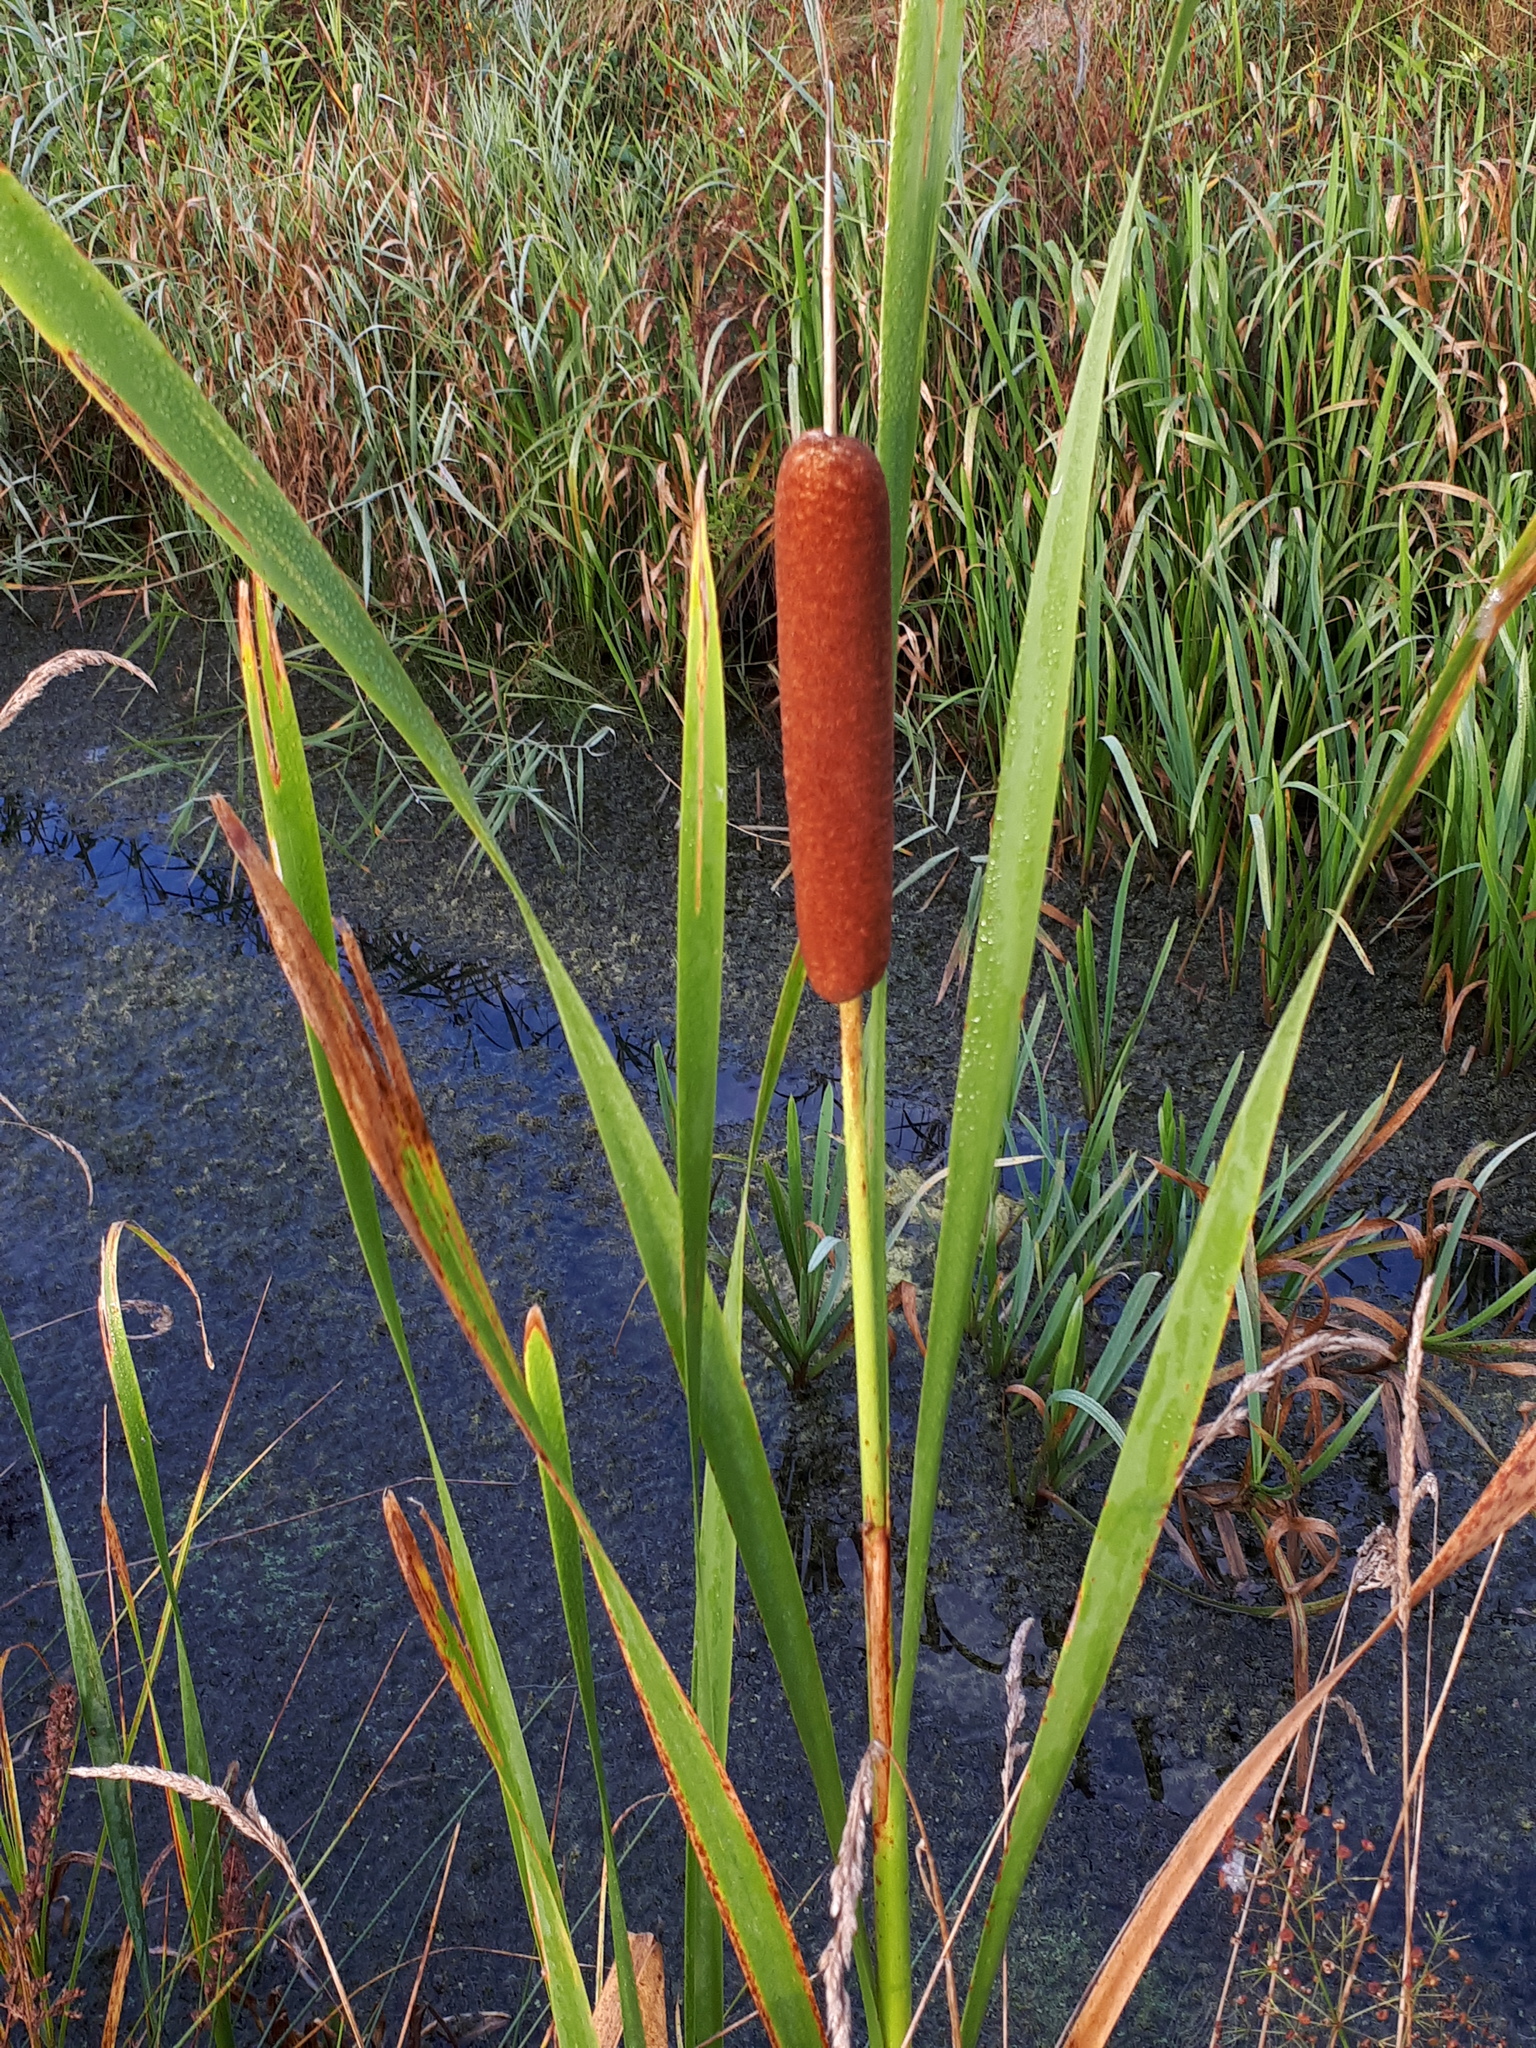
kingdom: Plantae
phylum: Tracheophyta
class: Liliopsida
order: Poales
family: Typhaceae
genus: Typha
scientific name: Typha latifolia
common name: Broadleaf cattail
